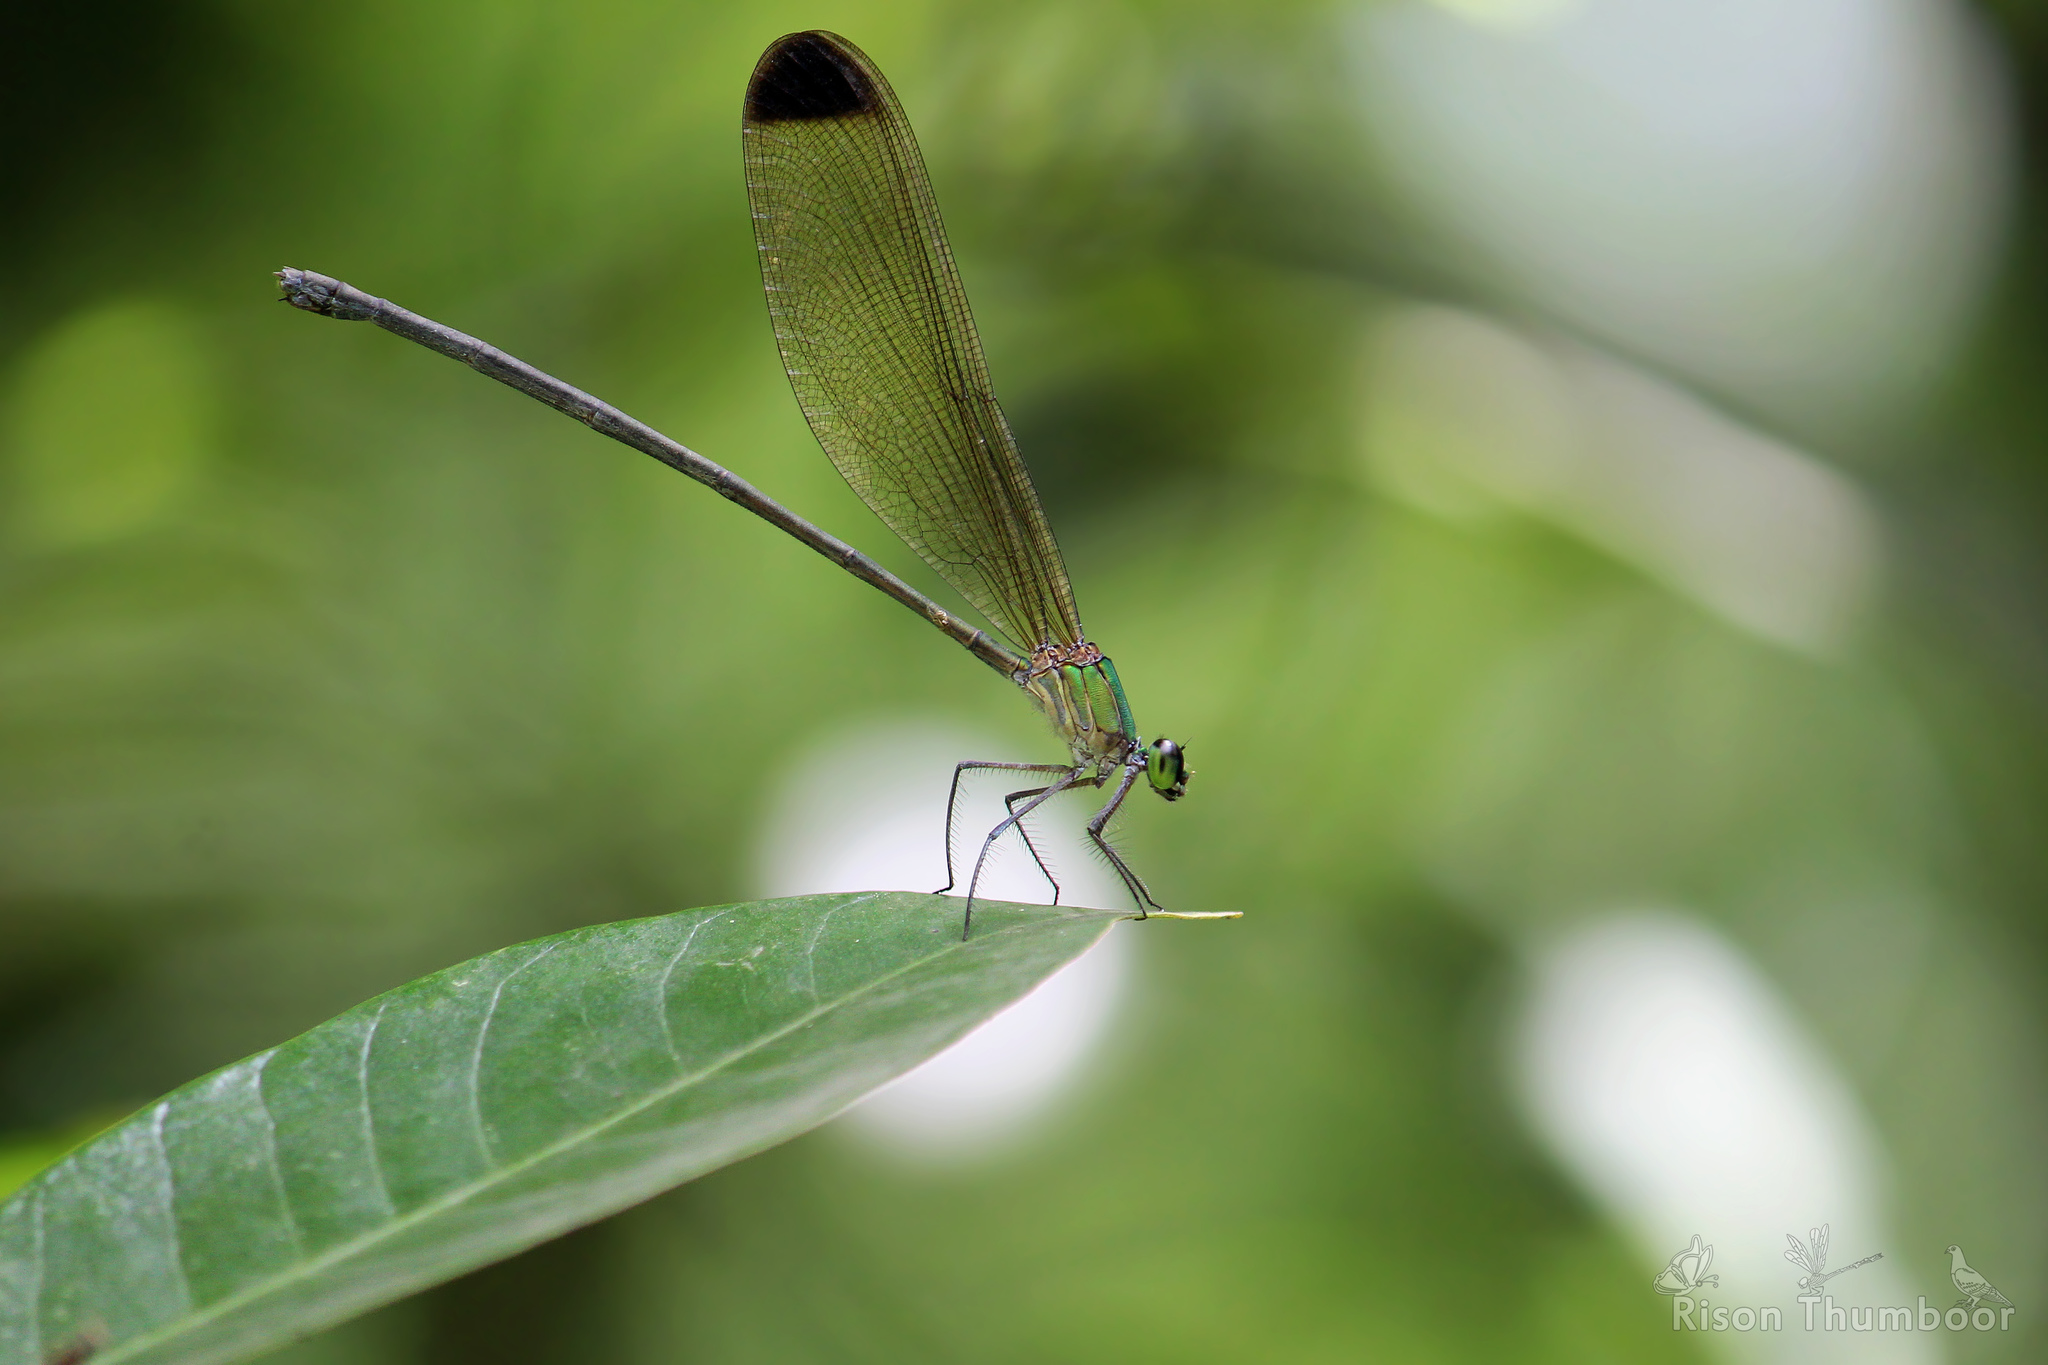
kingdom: Animalia
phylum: Arthropoda
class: Insecta
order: Odonata
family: Calopterygidae
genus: Vestalis
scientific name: Vestalis apicalis
